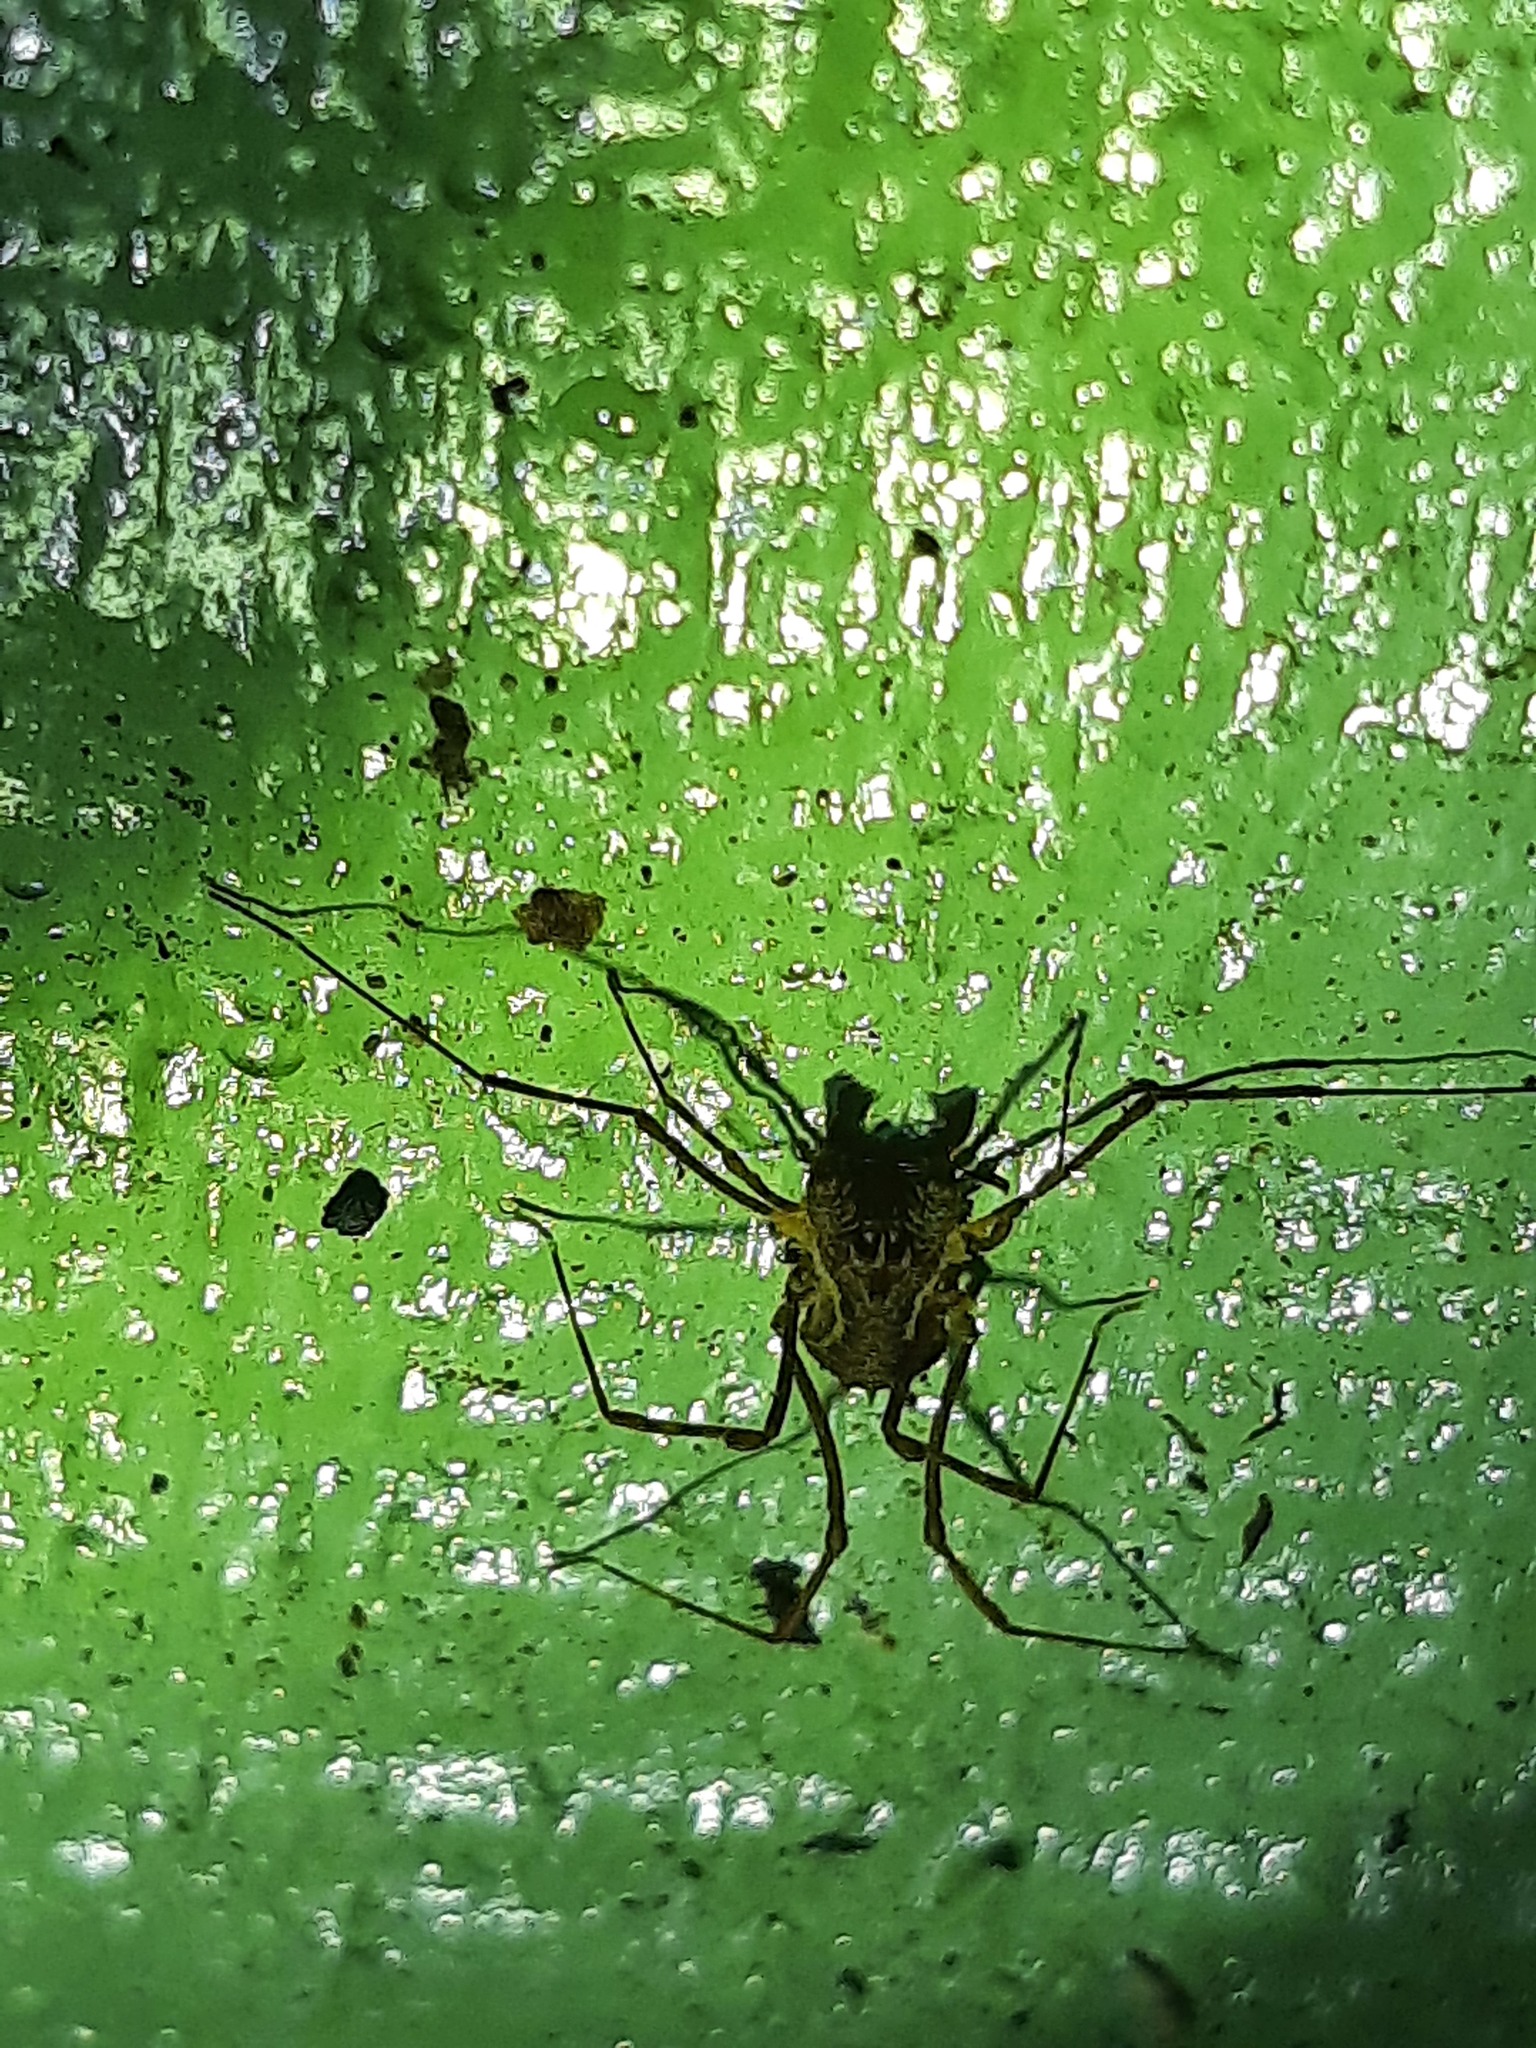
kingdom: Animalia
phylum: Arthropoda
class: Arachnida
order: Opiliones
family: Triaenonychidae
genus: Algidia
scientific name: Algidia chiltoni
